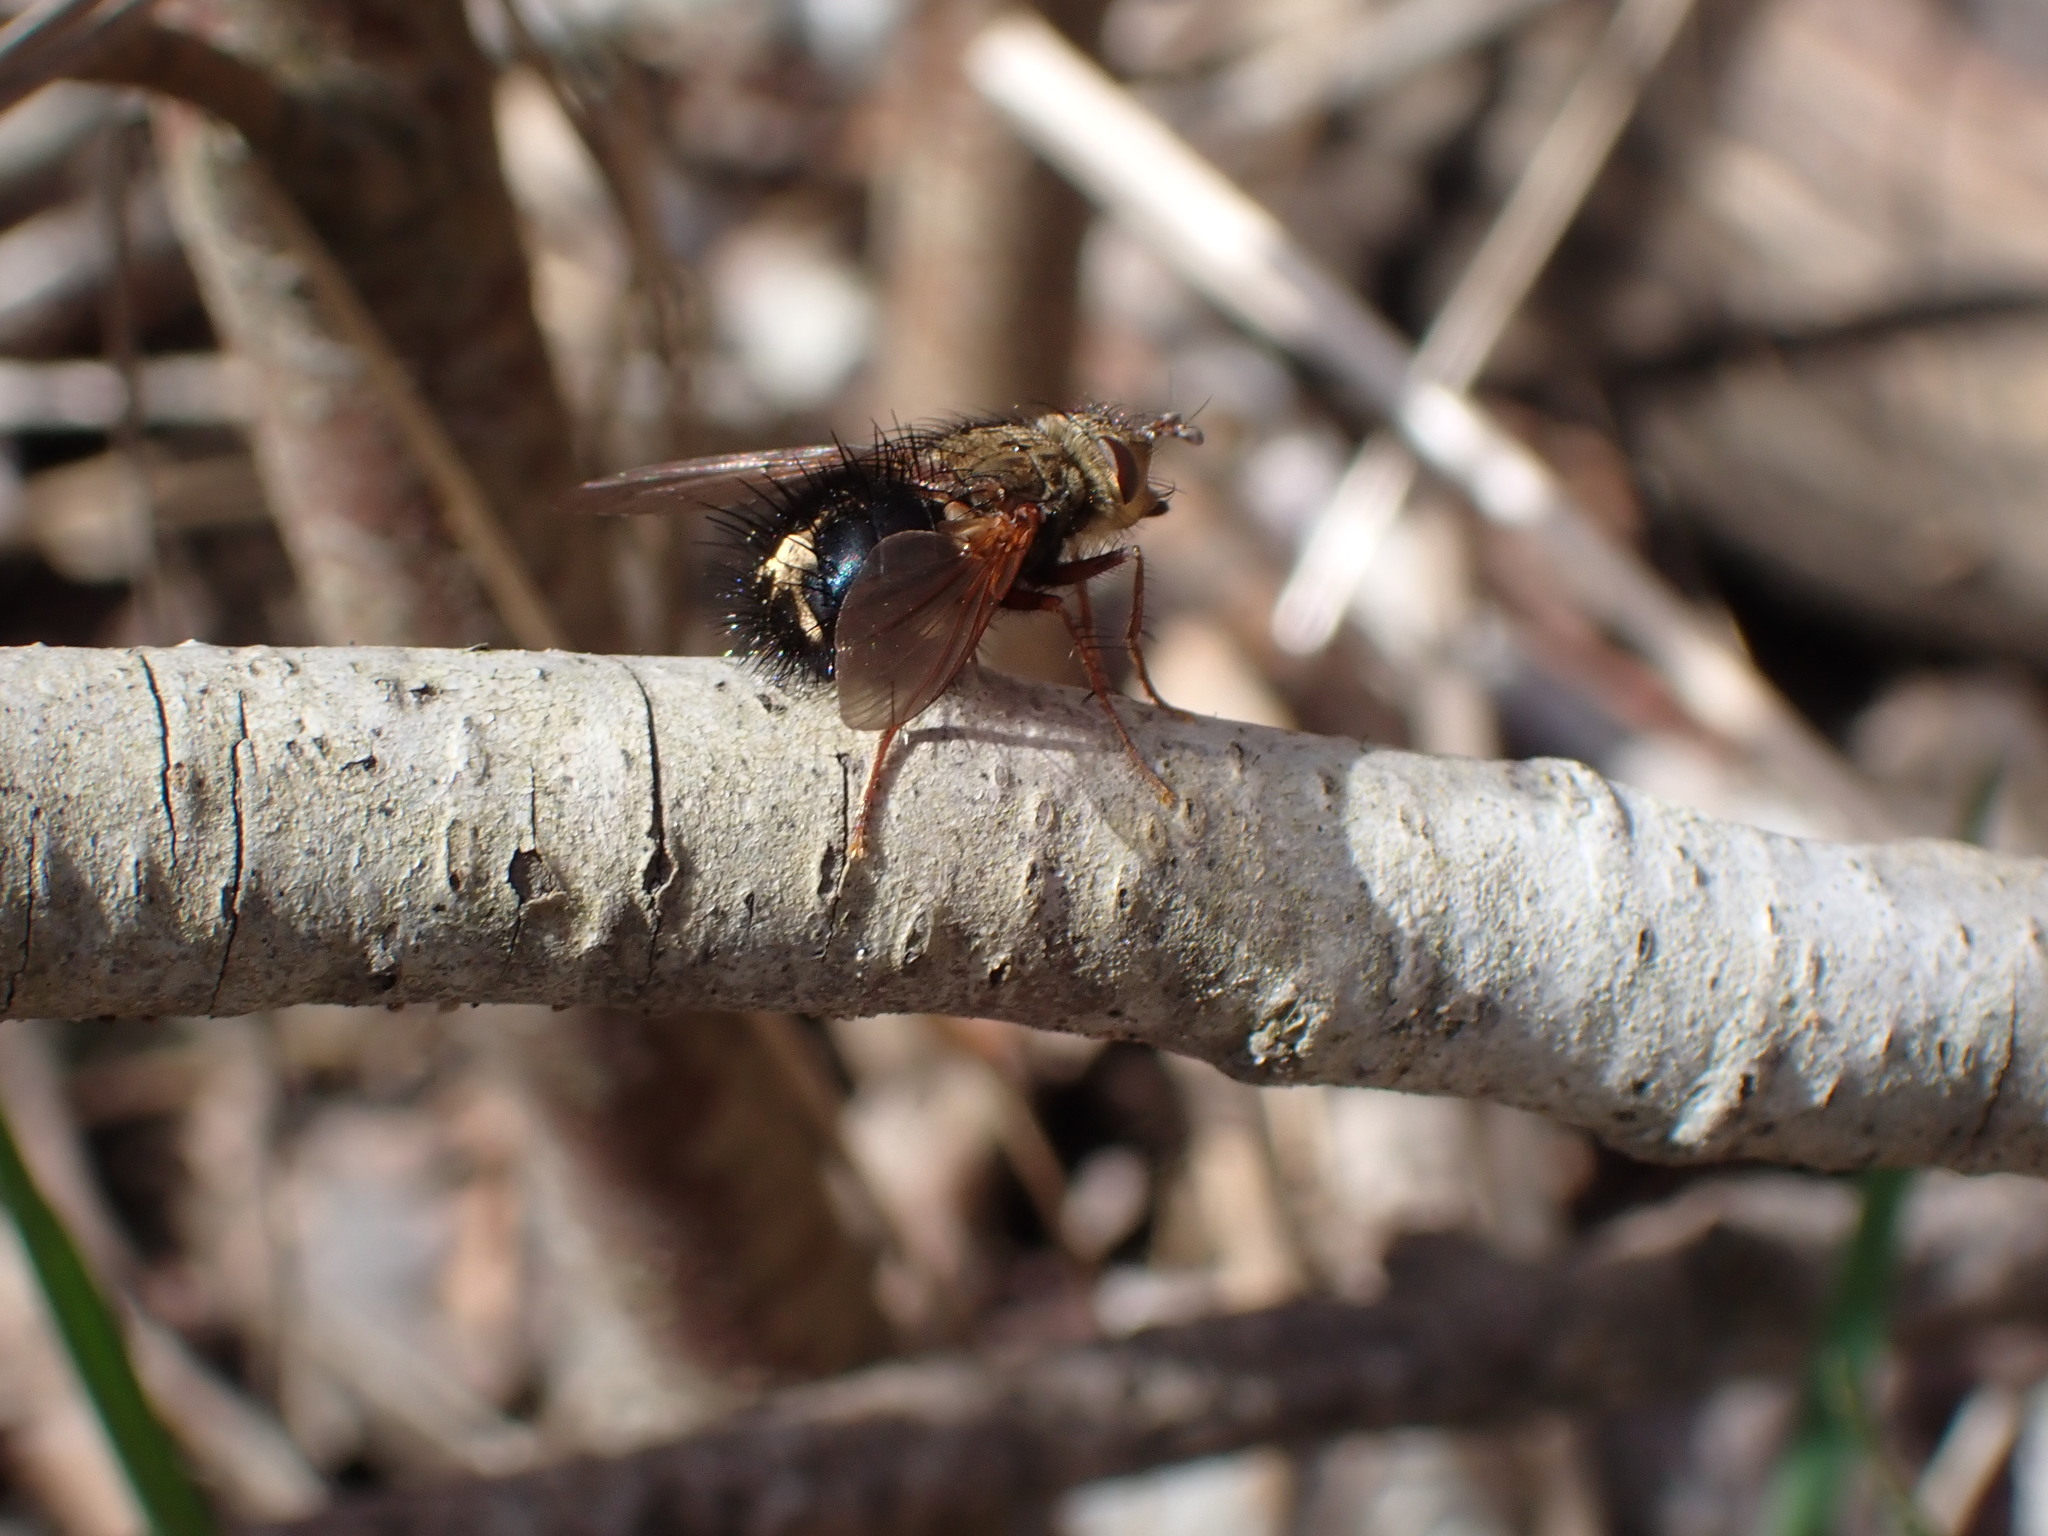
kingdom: Animalia
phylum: Arthropoda
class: Insecta
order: Diptera
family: Tachinidae
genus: Epalpus
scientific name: Epalpus signifer
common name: Early tachinid fly
